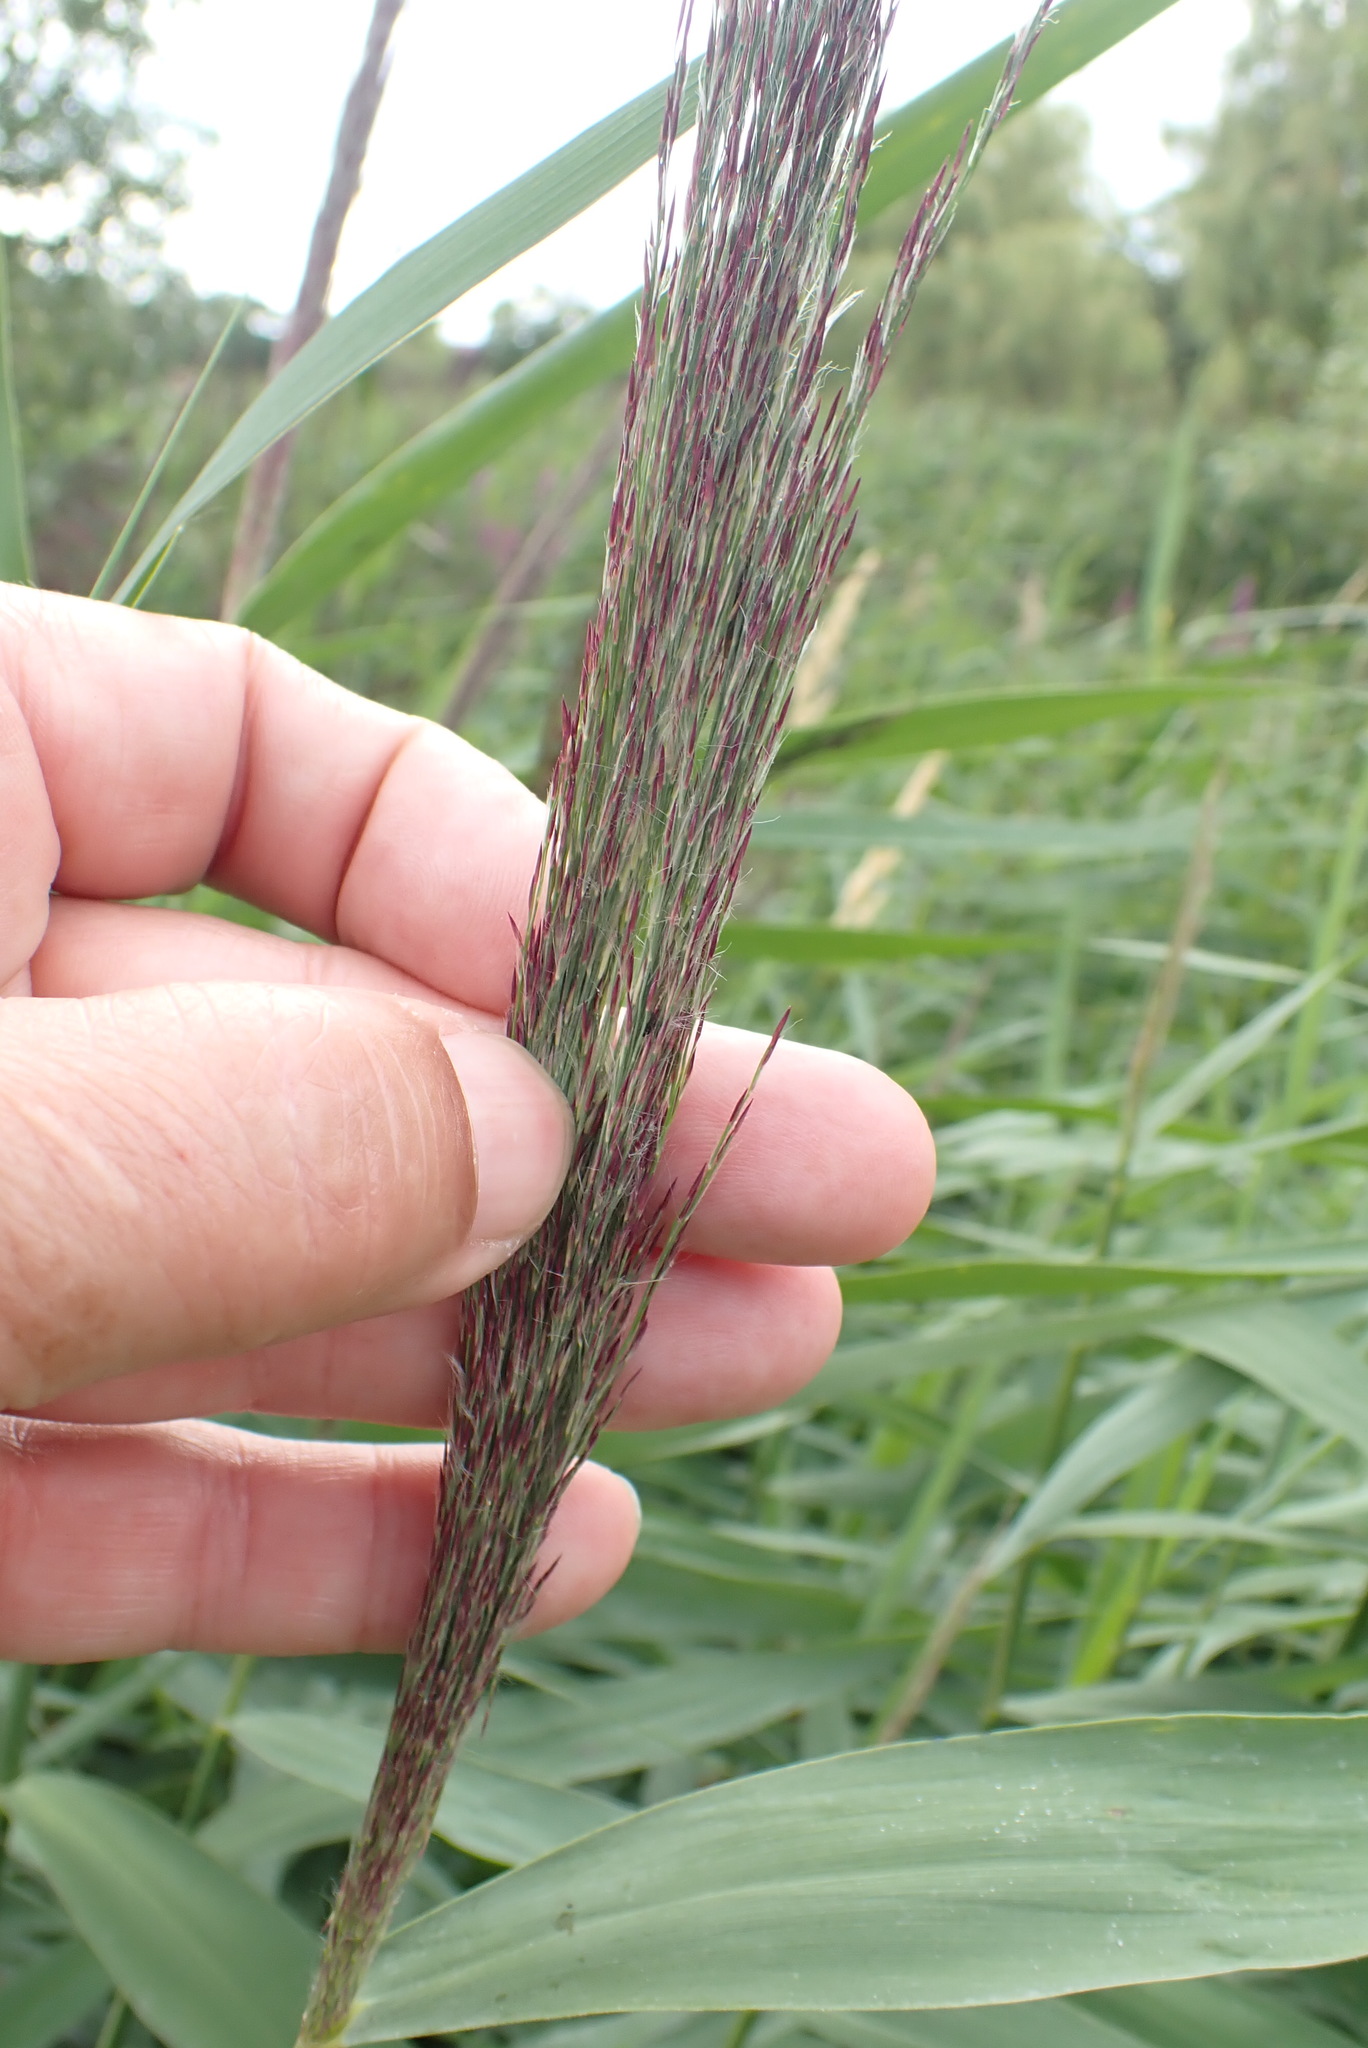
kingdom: Plantae
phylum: Tracheophyta
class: Liliopsida
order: Poales
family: Poaceae
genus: Phragmites
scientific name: Phragmites australis
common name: Common reed
